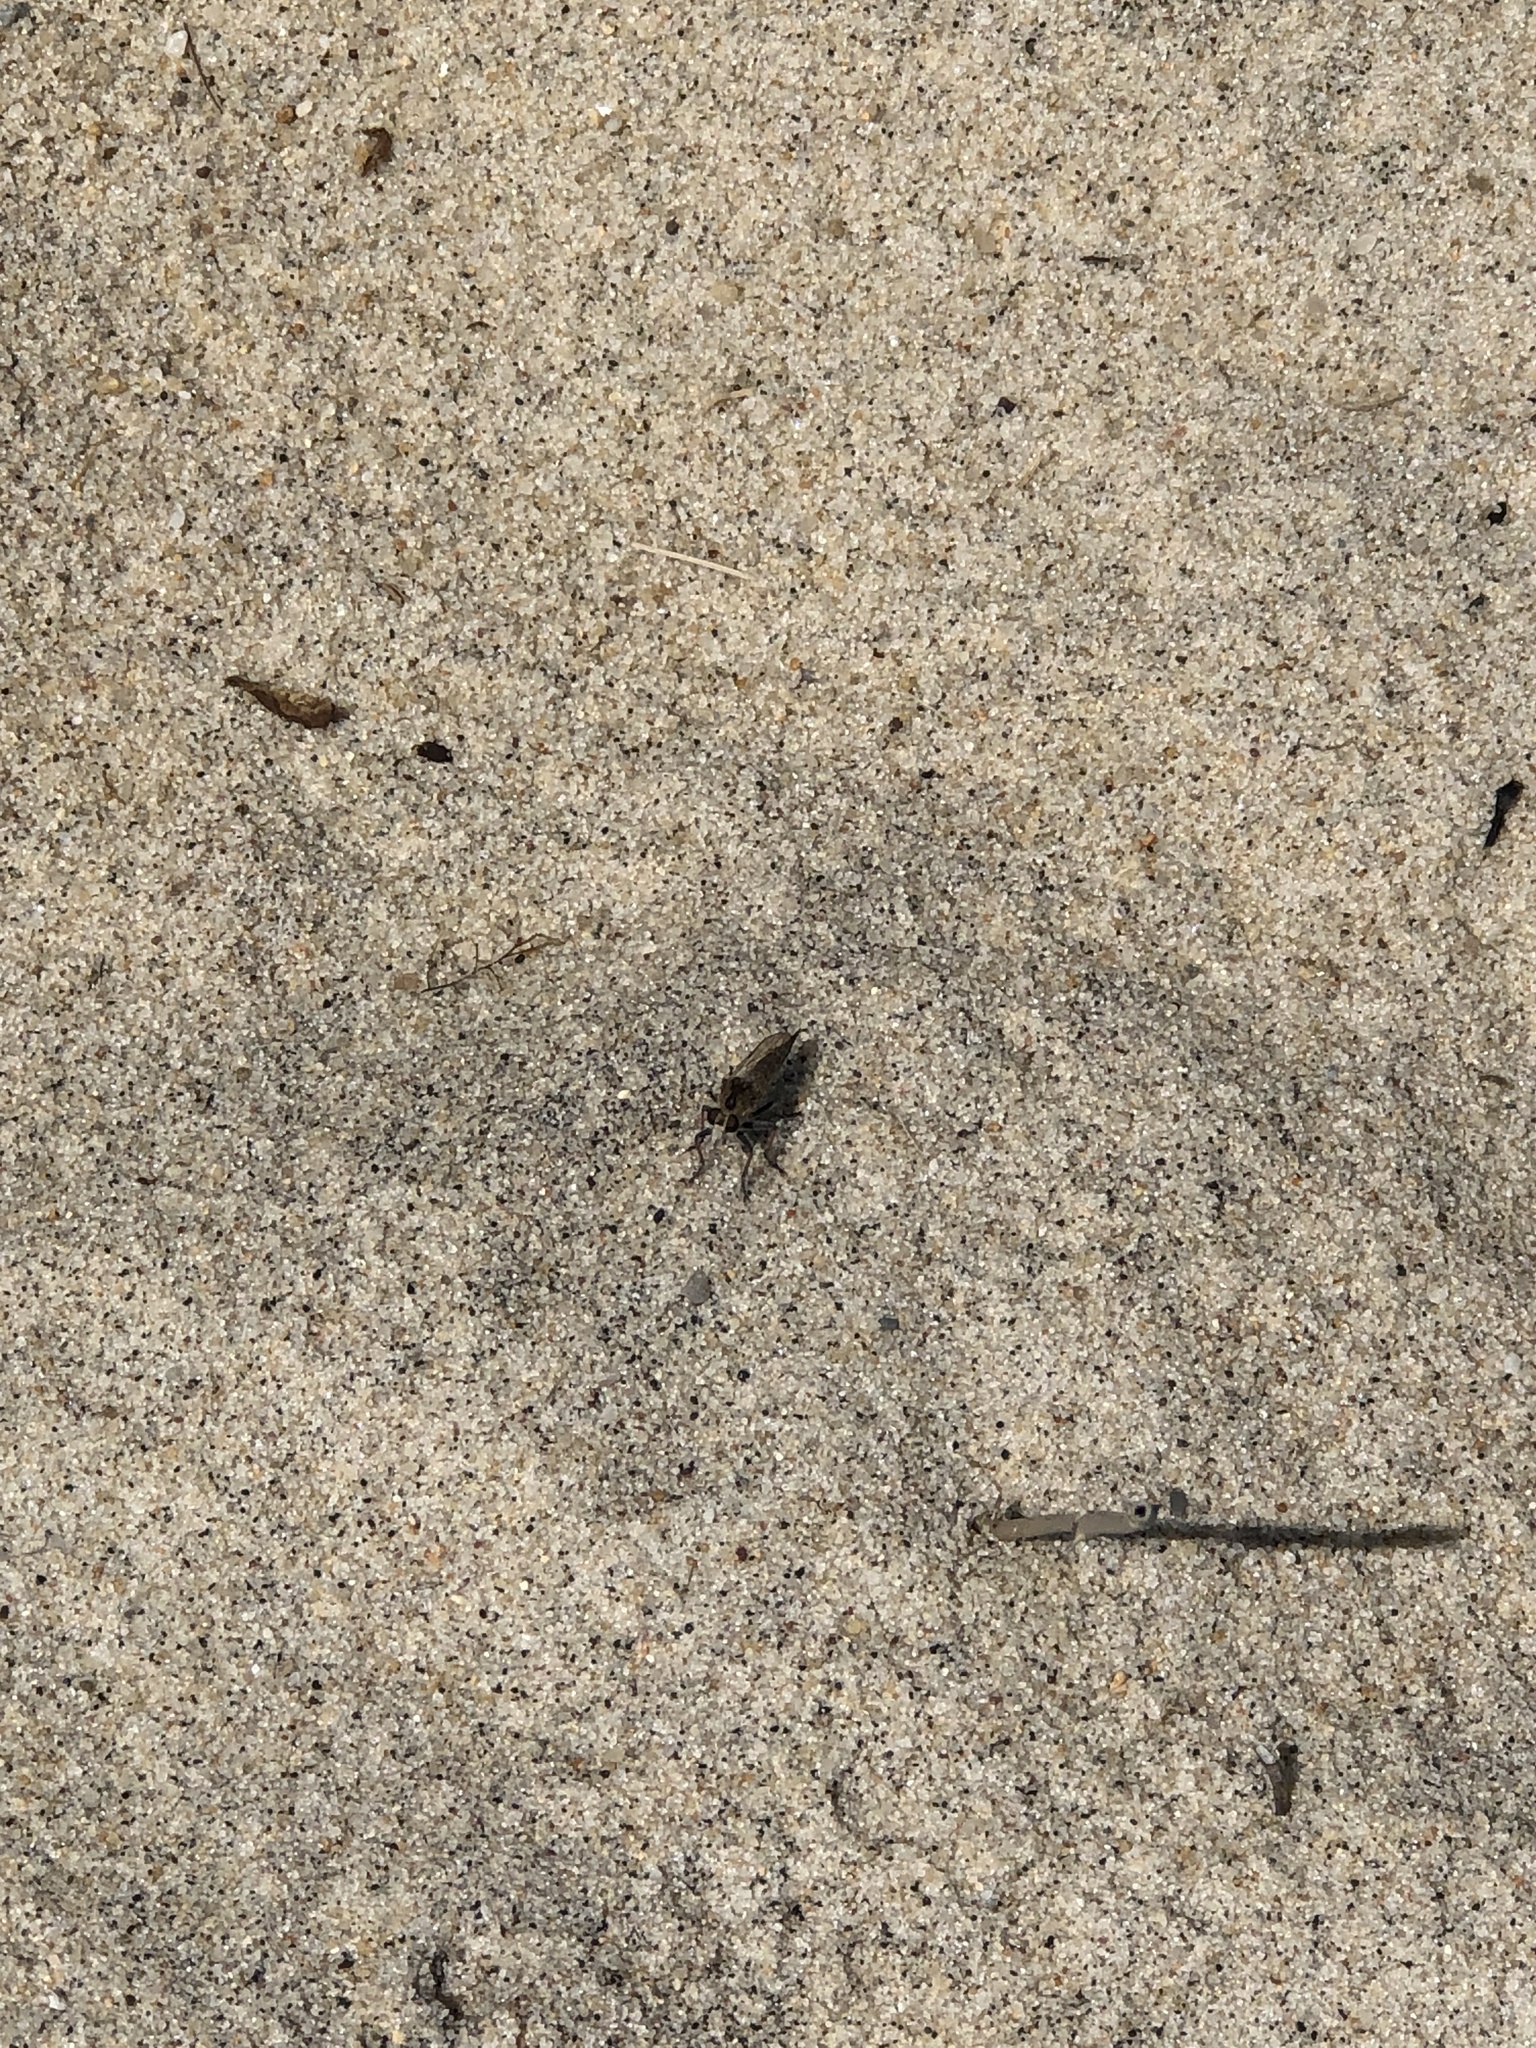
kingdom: Animalia
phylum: Arthropoda
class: Insecta
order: Diptera
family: Asilidae
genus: Efferia
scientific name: Efferia albibarbis
